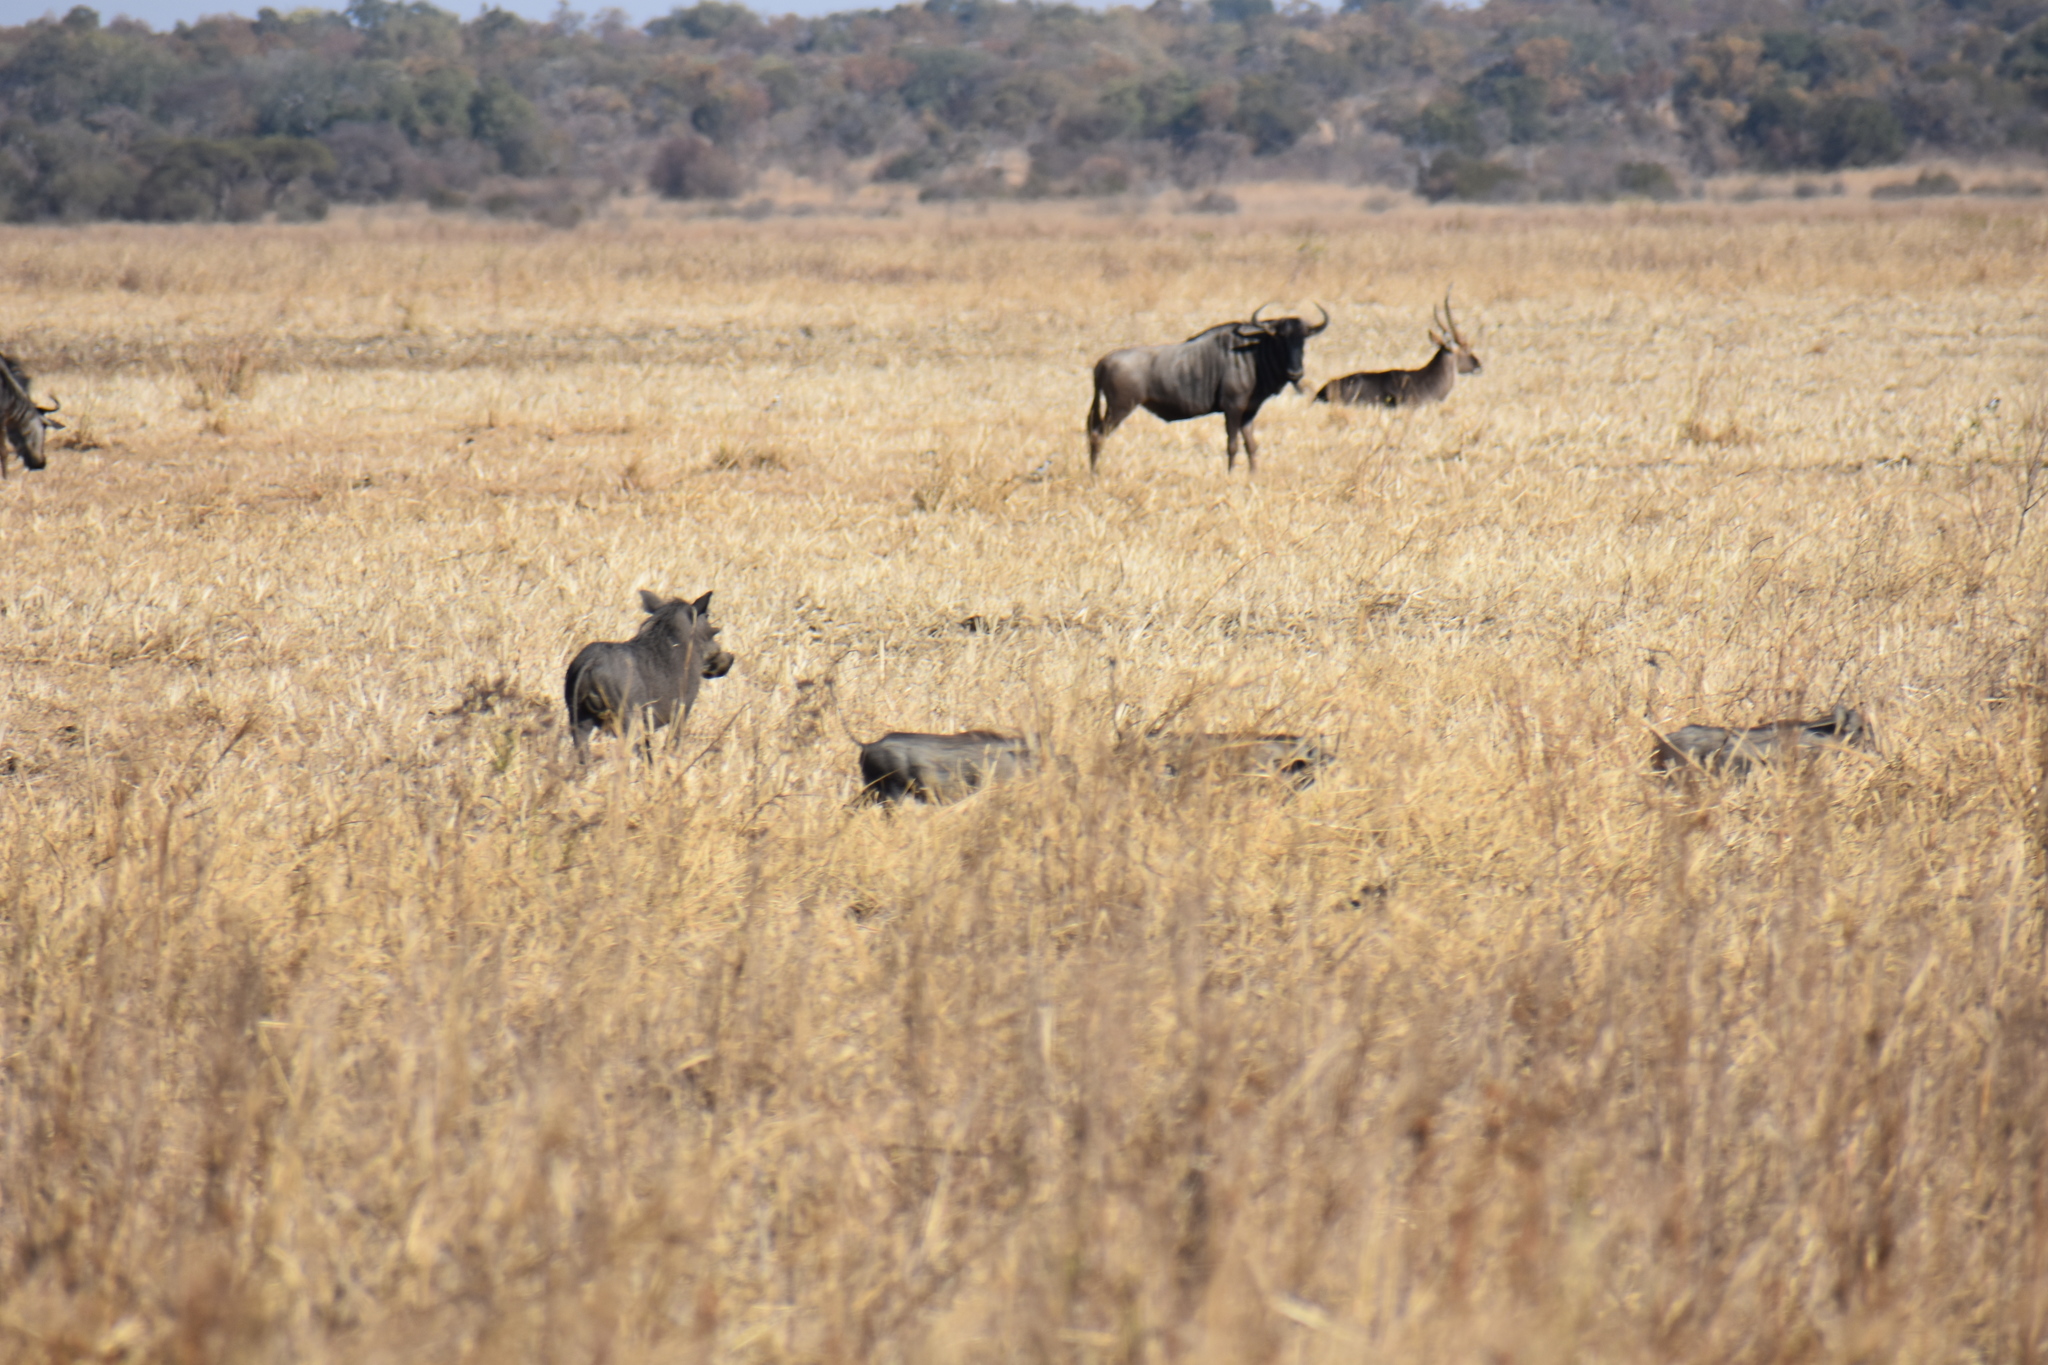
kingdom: Animalia
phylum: Chordata
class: Mammalia
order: Artiodactyla
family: Suidae
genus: Phacochoerus
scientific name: Phacochoerus africanus
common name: Common warthog
